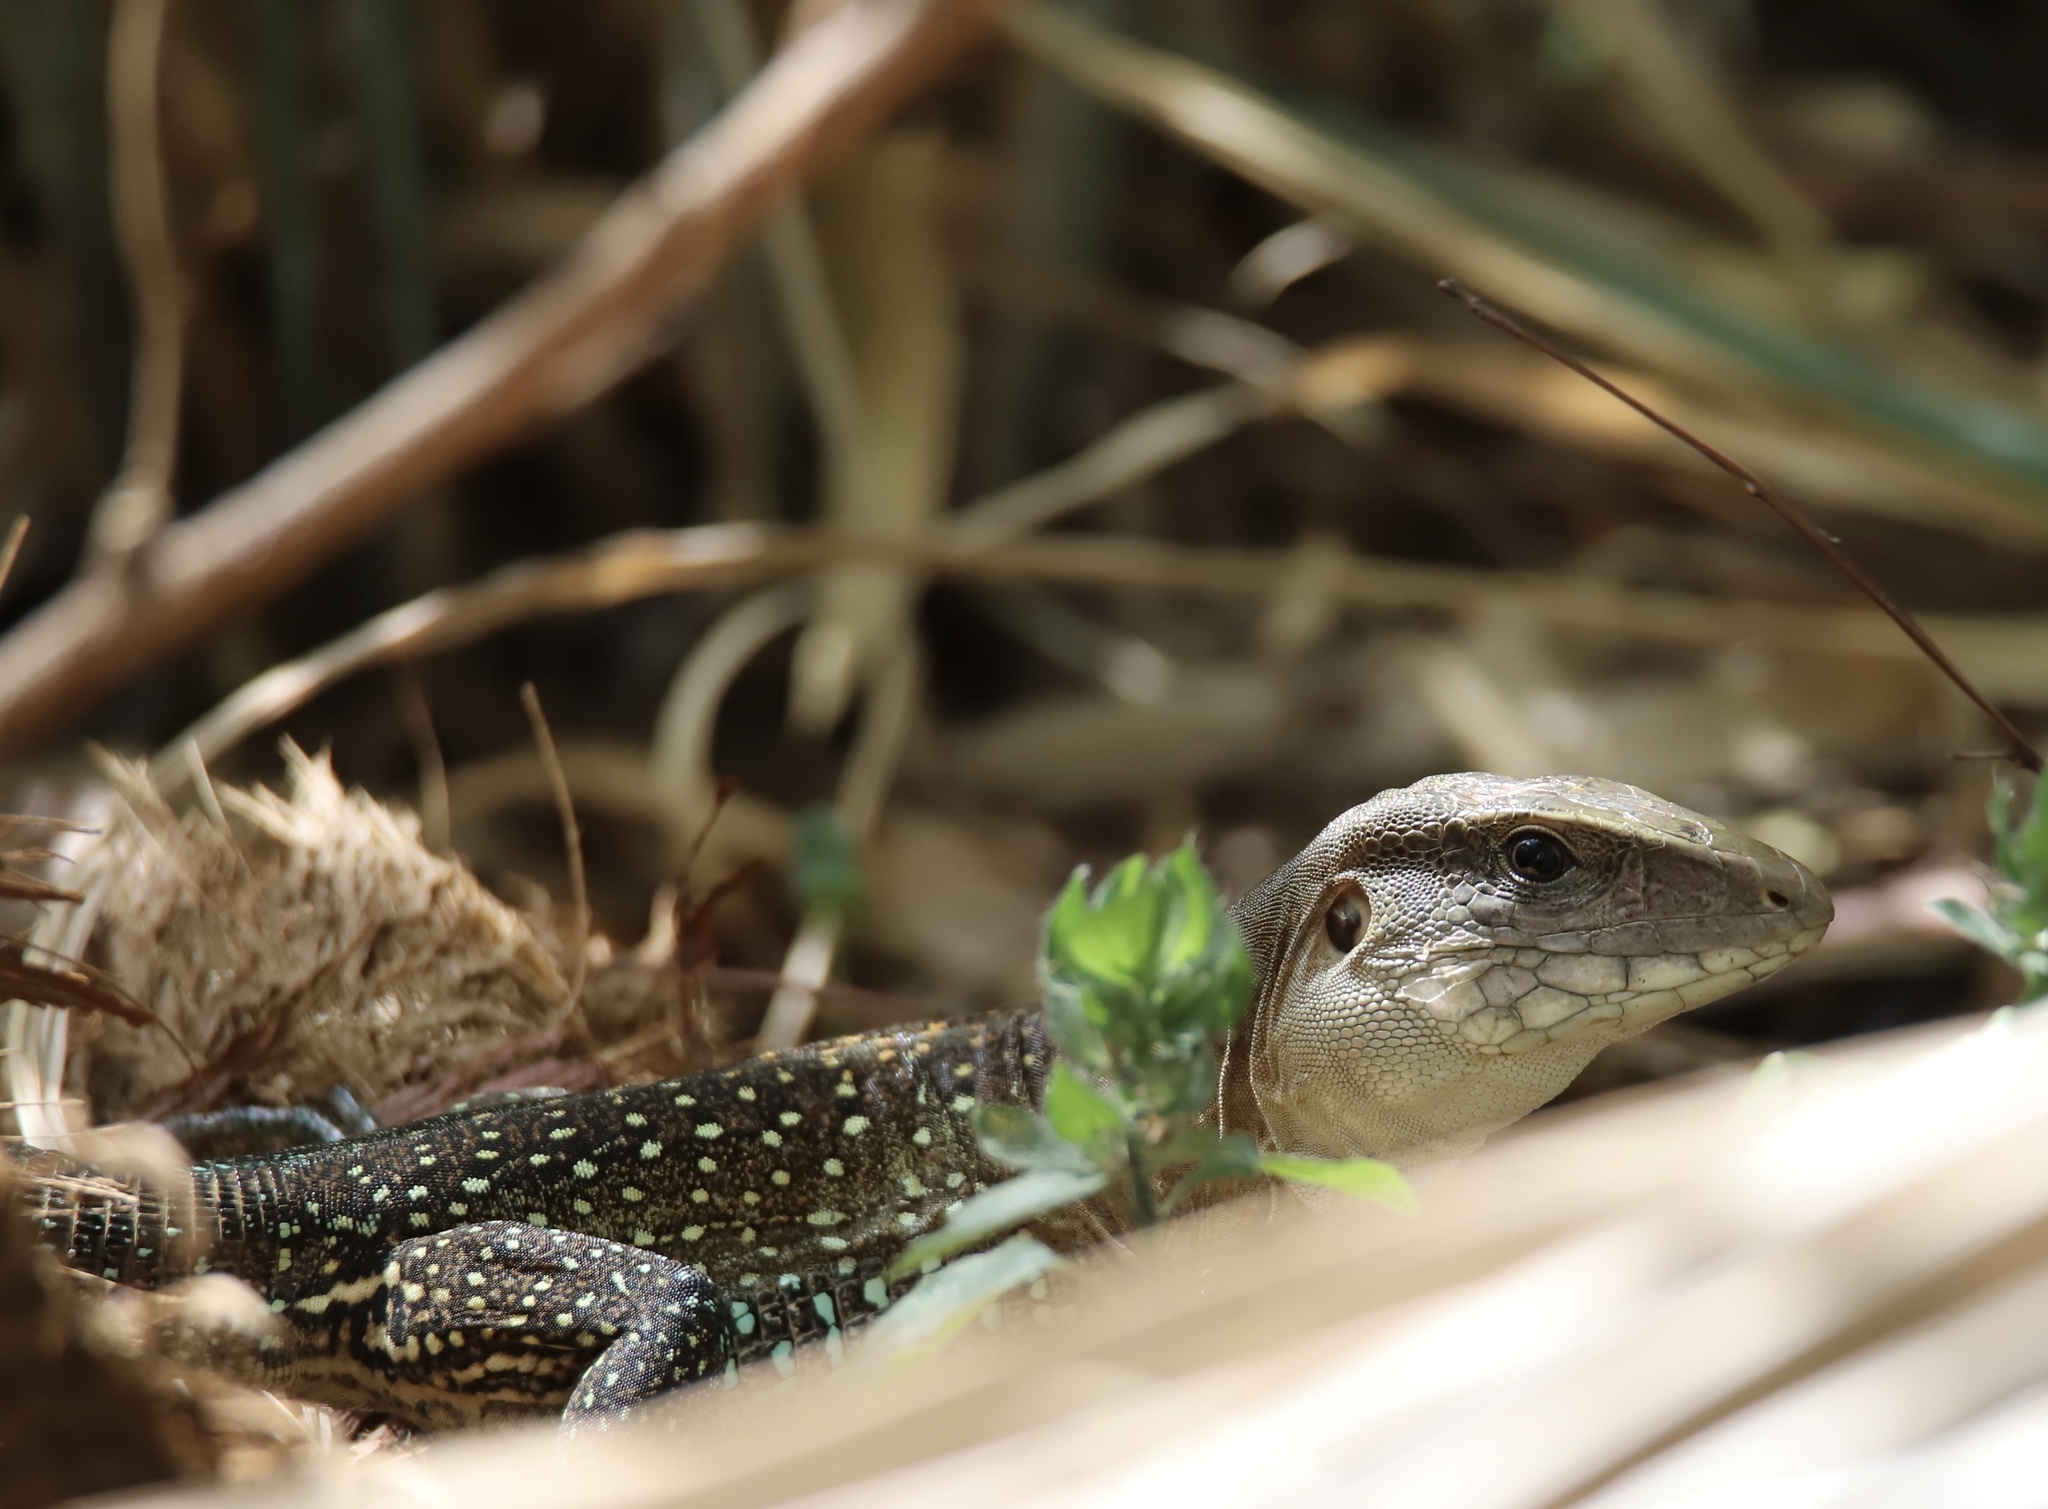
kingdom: Animalia
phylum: Chordata
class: Squamata
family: Teiidae
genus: Ameiva
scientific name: Ameiva praesignis
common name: Giant ameiva
